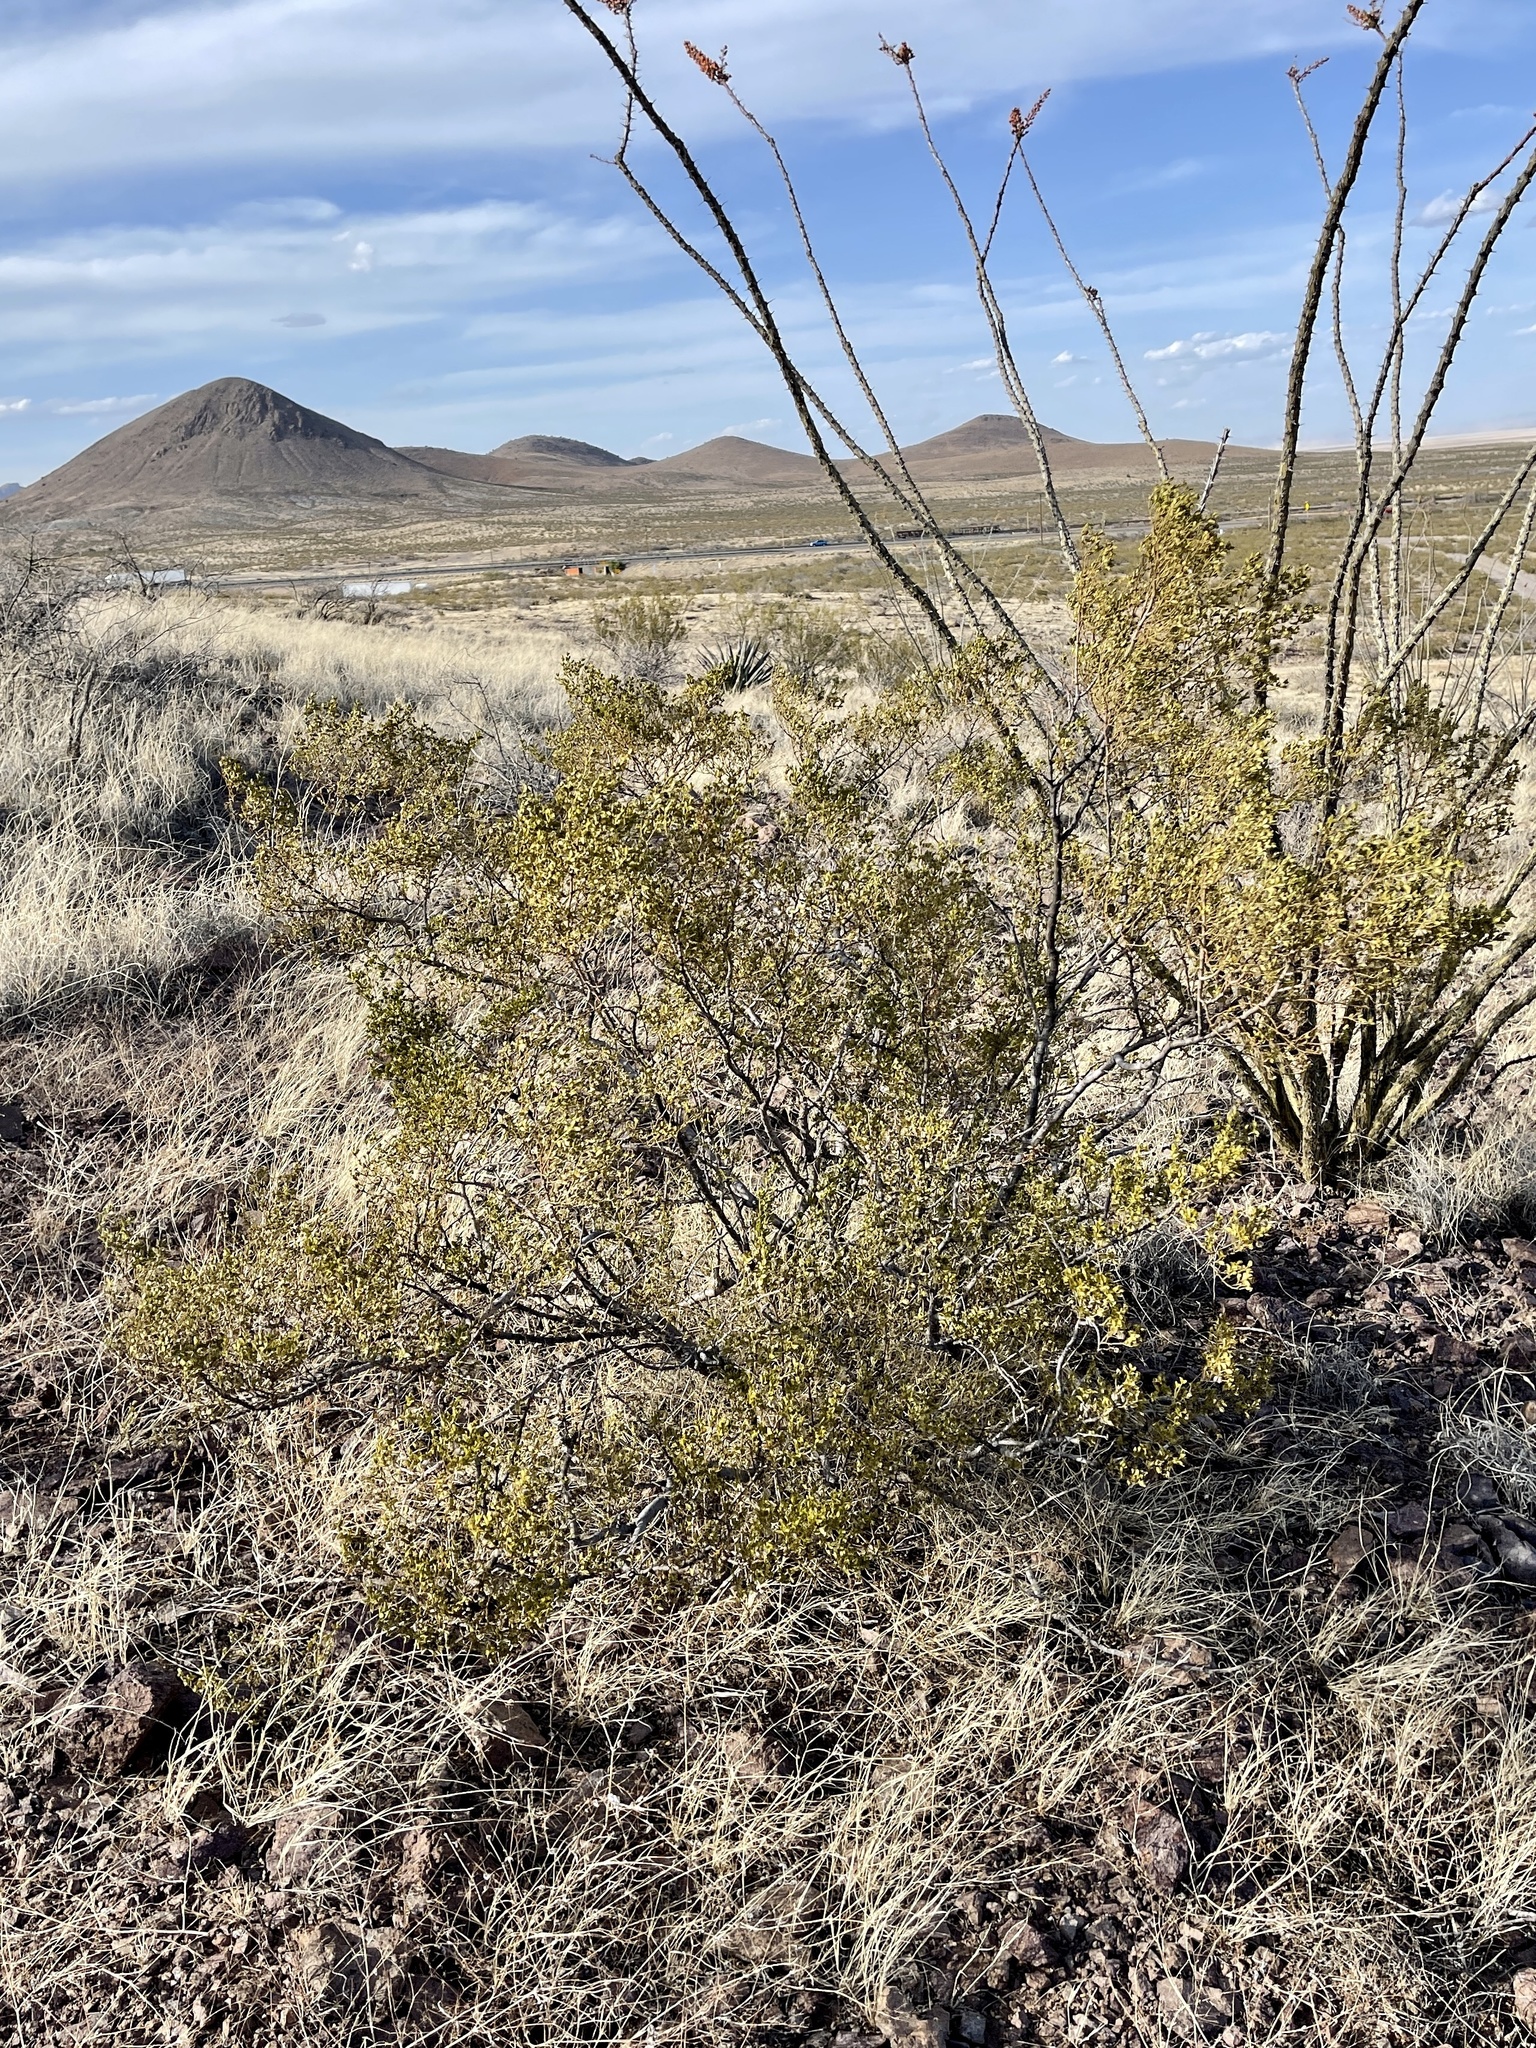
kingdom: Plantae
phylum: Tracheophyta
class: Magnoliopsida
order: Zygophyllales
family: Zygophyllaceae
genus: Larrea
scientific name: Larrea tridentata
